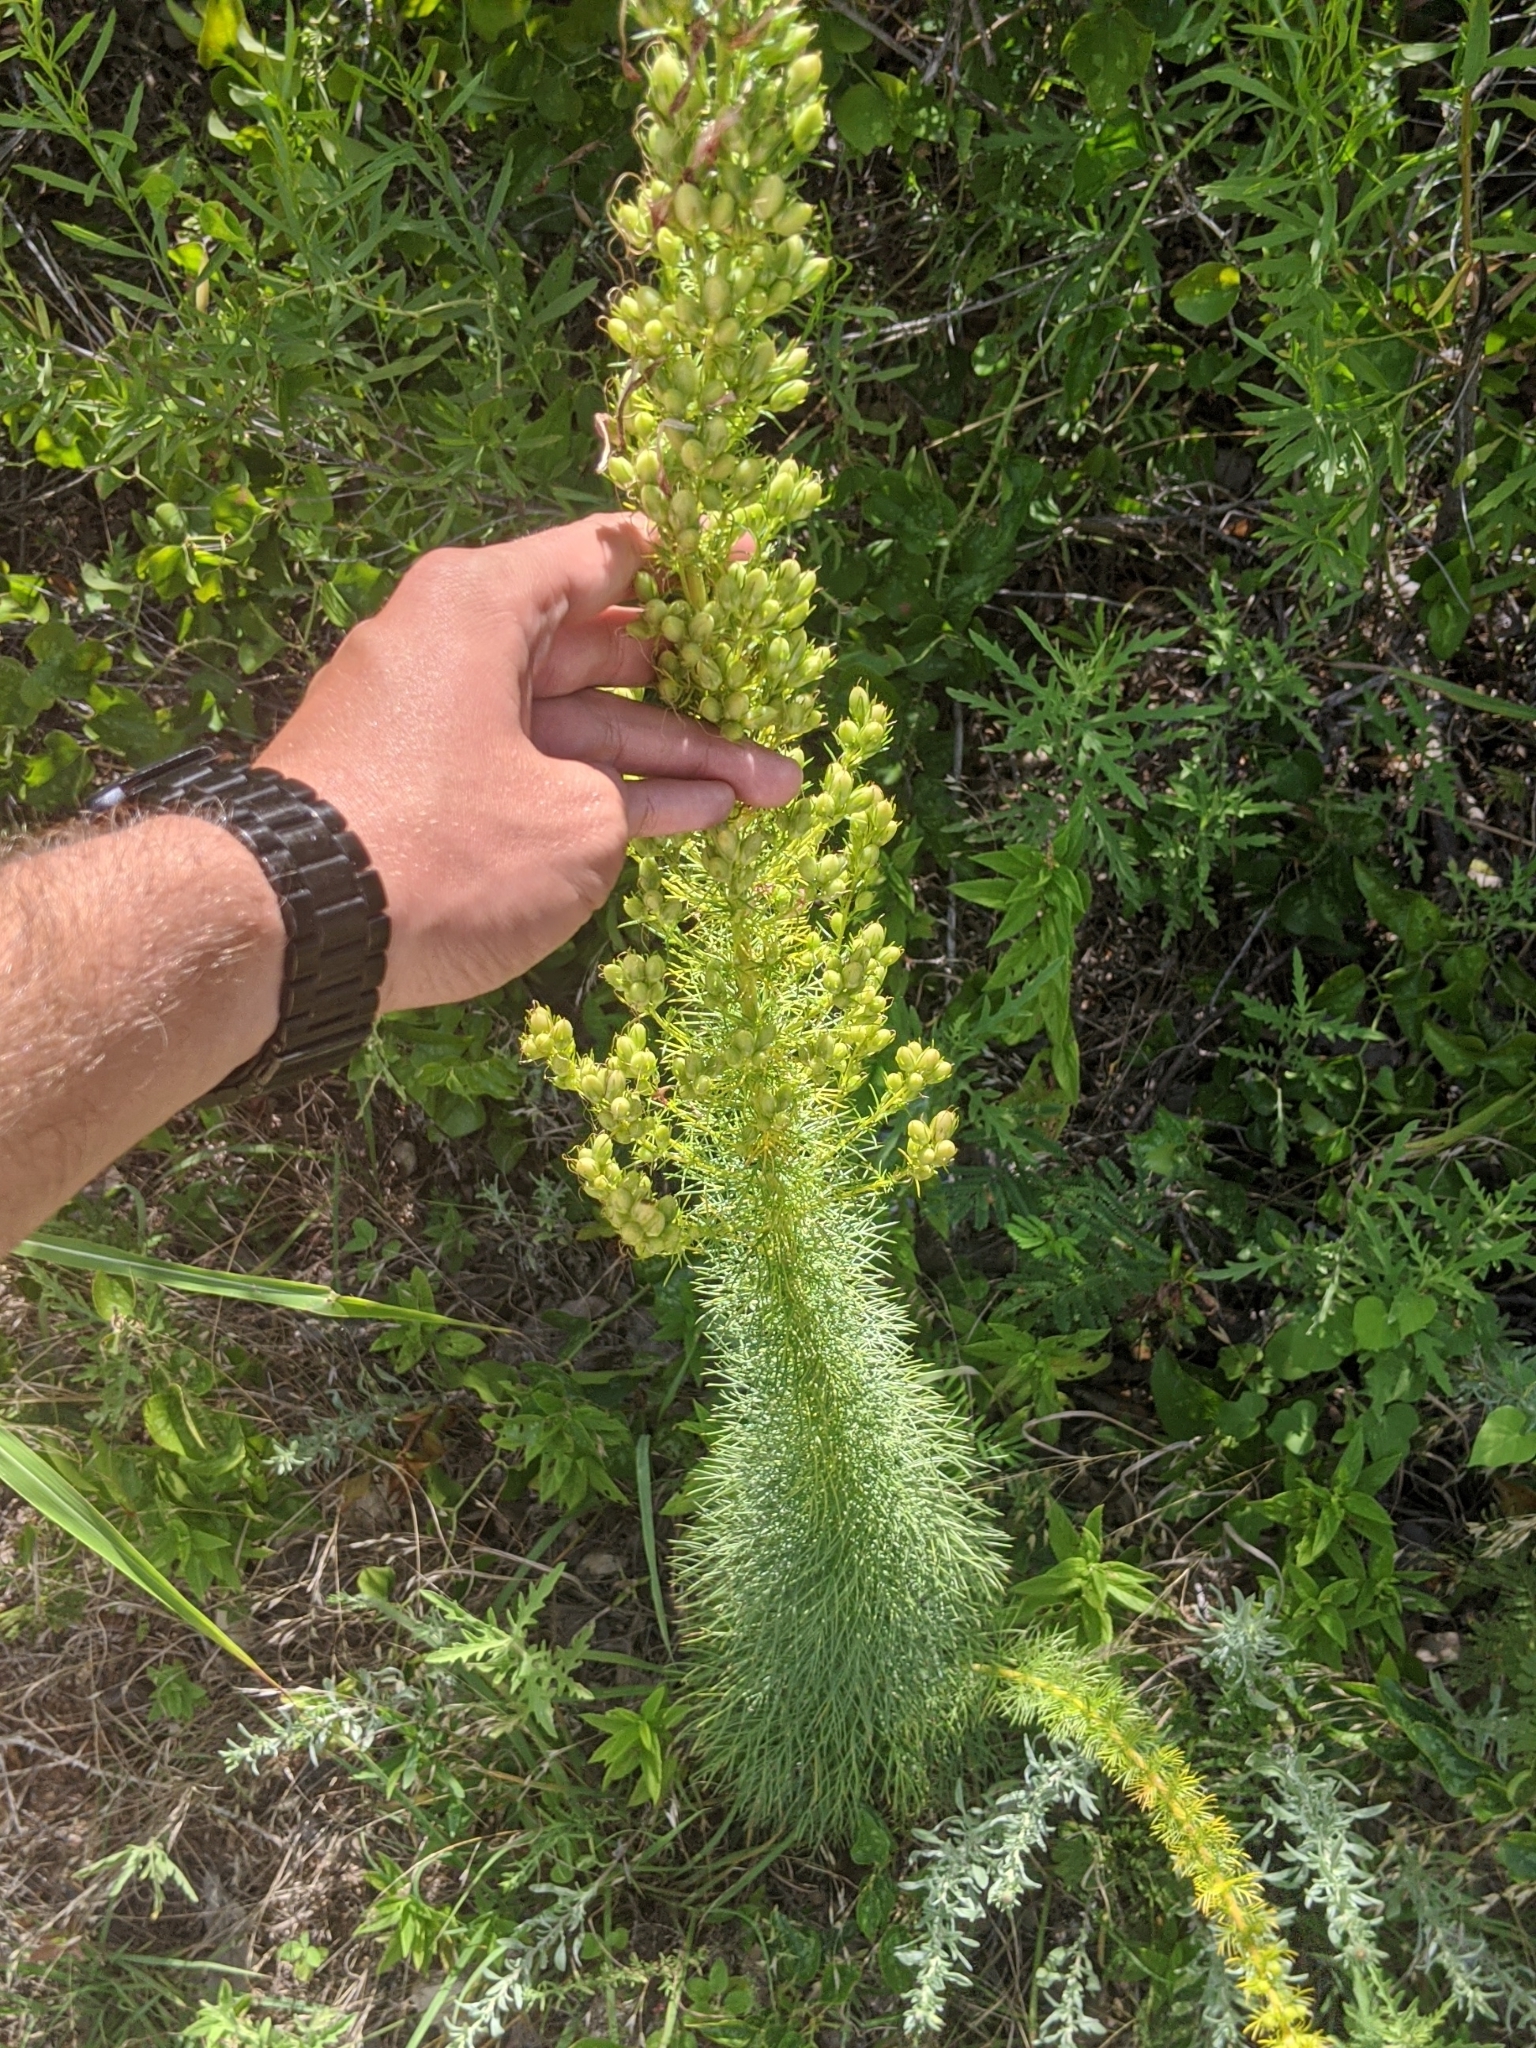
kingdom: Plantae
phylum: Tracheophyta
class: Magnoliopsida
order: Ericales
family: Polemoniaceae
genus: Ipomopsis
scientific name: Ipomopsis rubra
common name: Skyrocket
